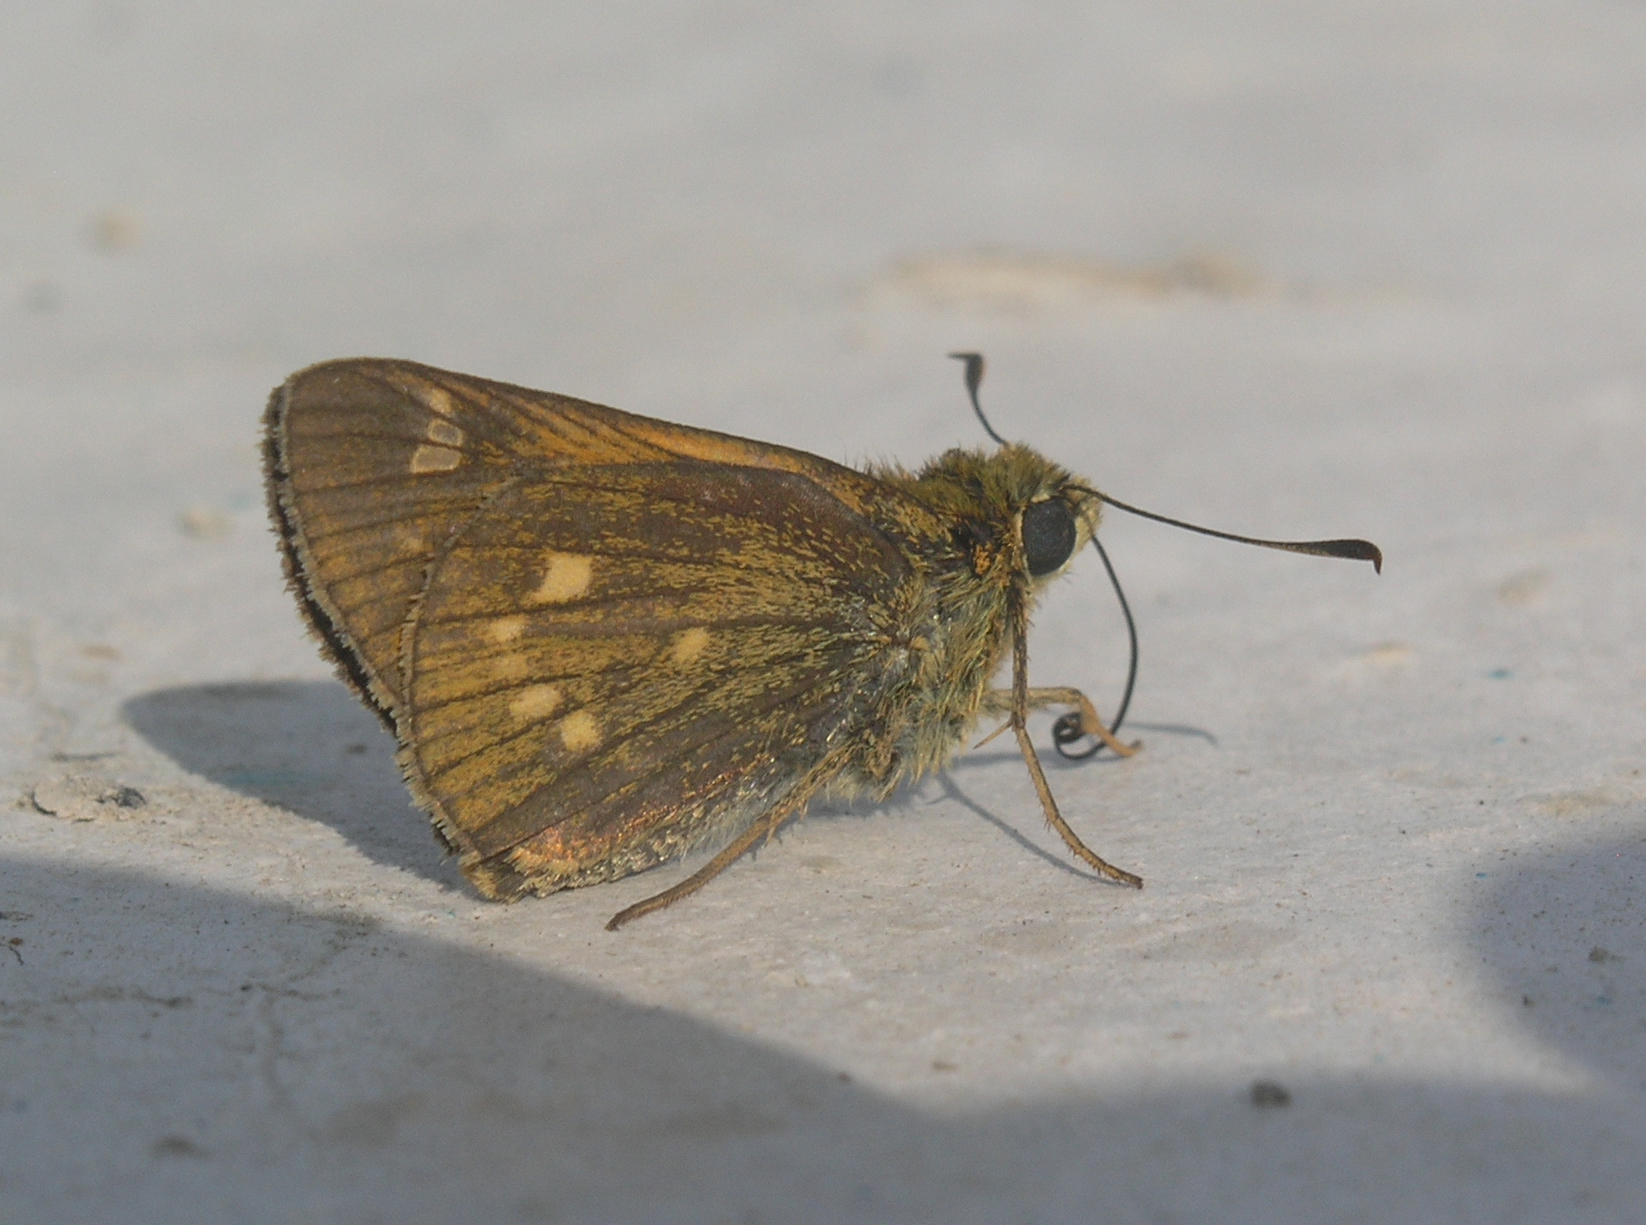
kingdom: Animalia
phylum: Arthropoda
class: Insecta
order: Lepidoptera
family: Hesperiidae
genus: Ochlodes
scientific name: Ochlodes ochracea
